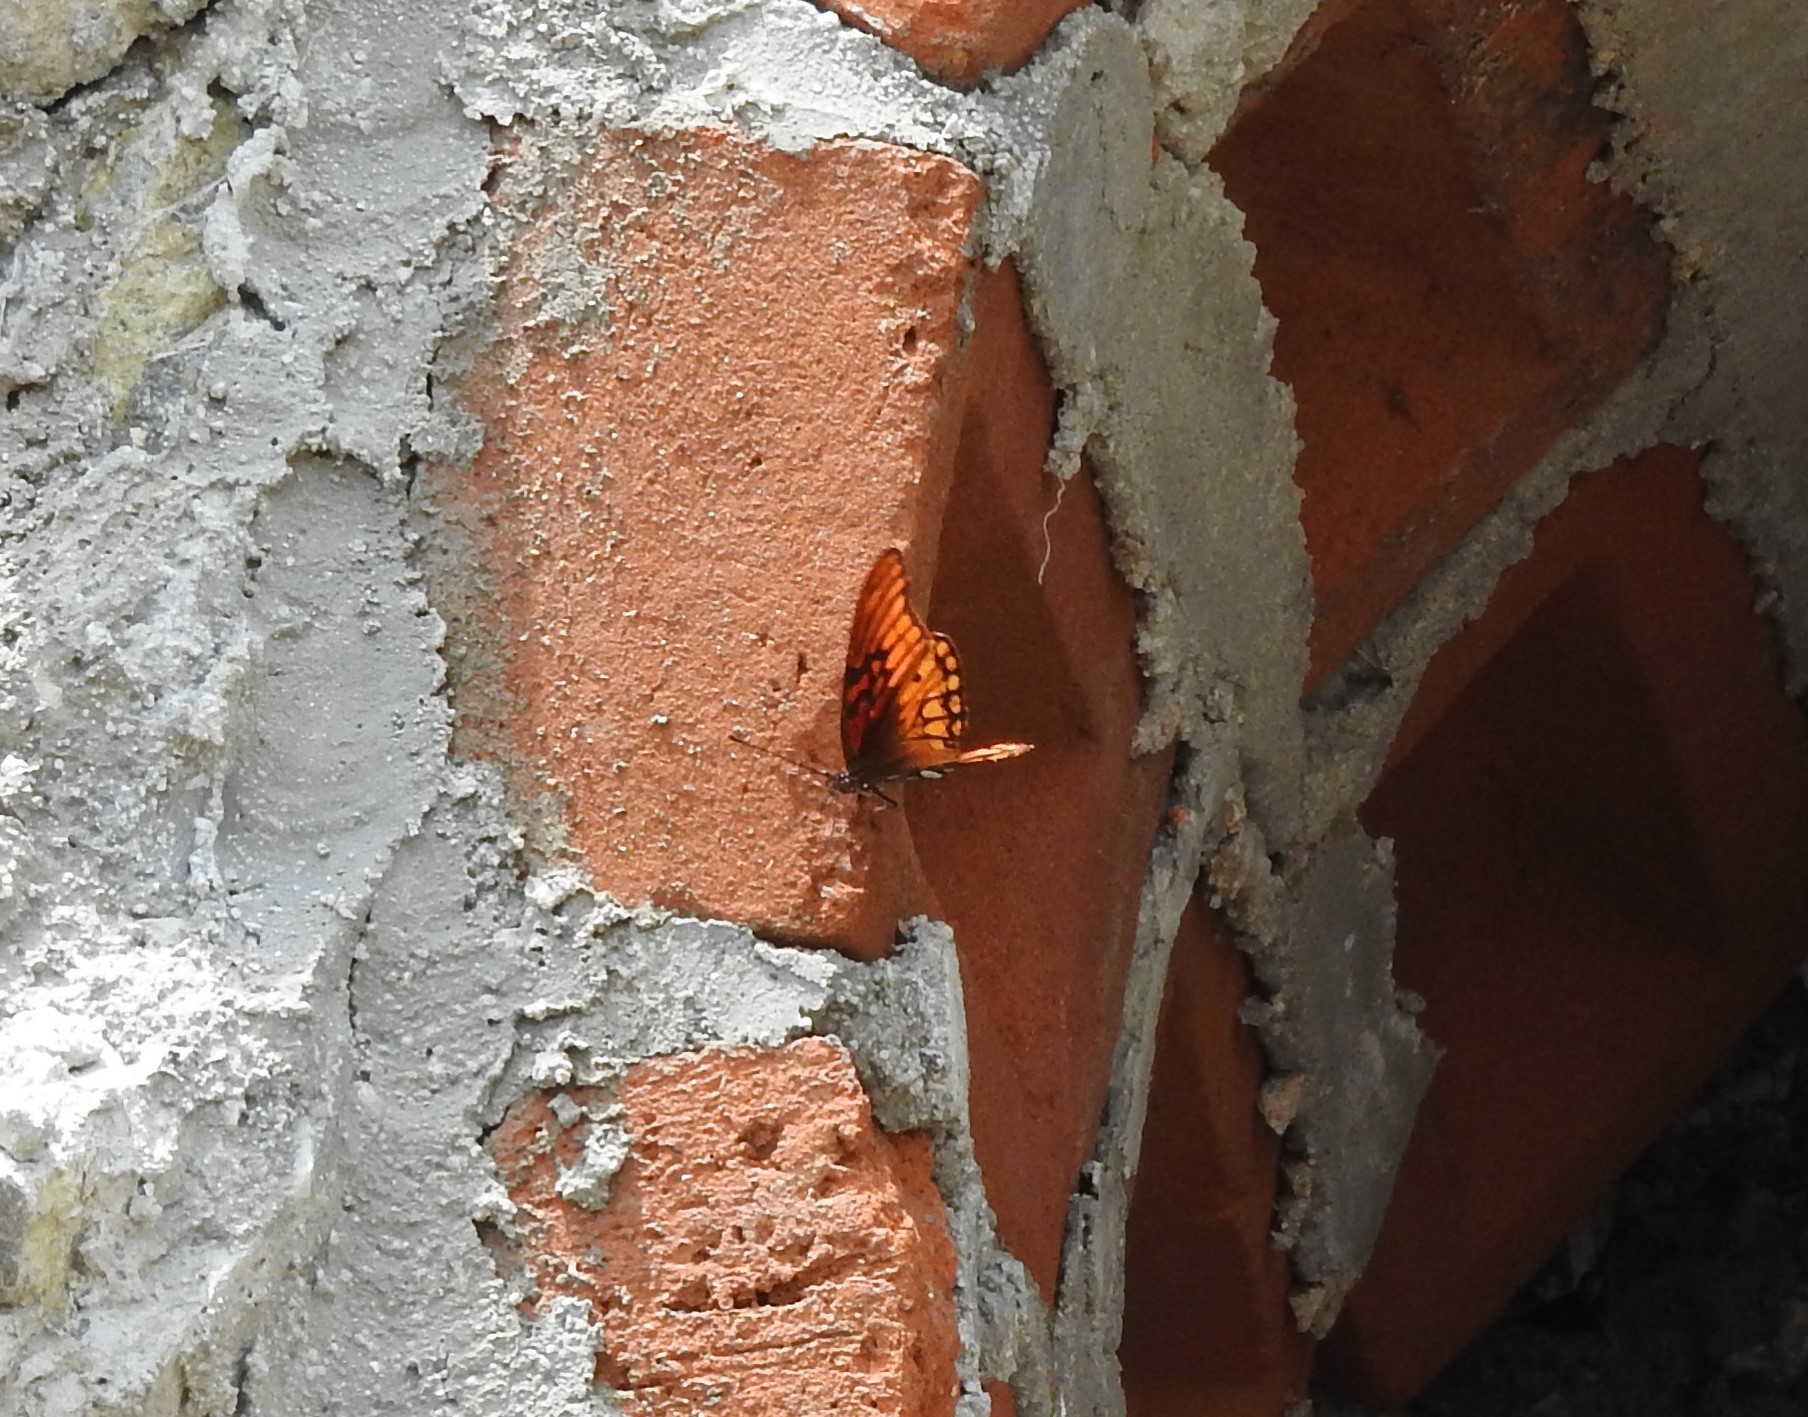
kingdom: Animalia
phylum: Arthropoda
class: Insecta
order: Lepidoptera
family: Nymphalidae
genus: Dione
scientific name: Dione moneta
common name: Mexican silverspot
